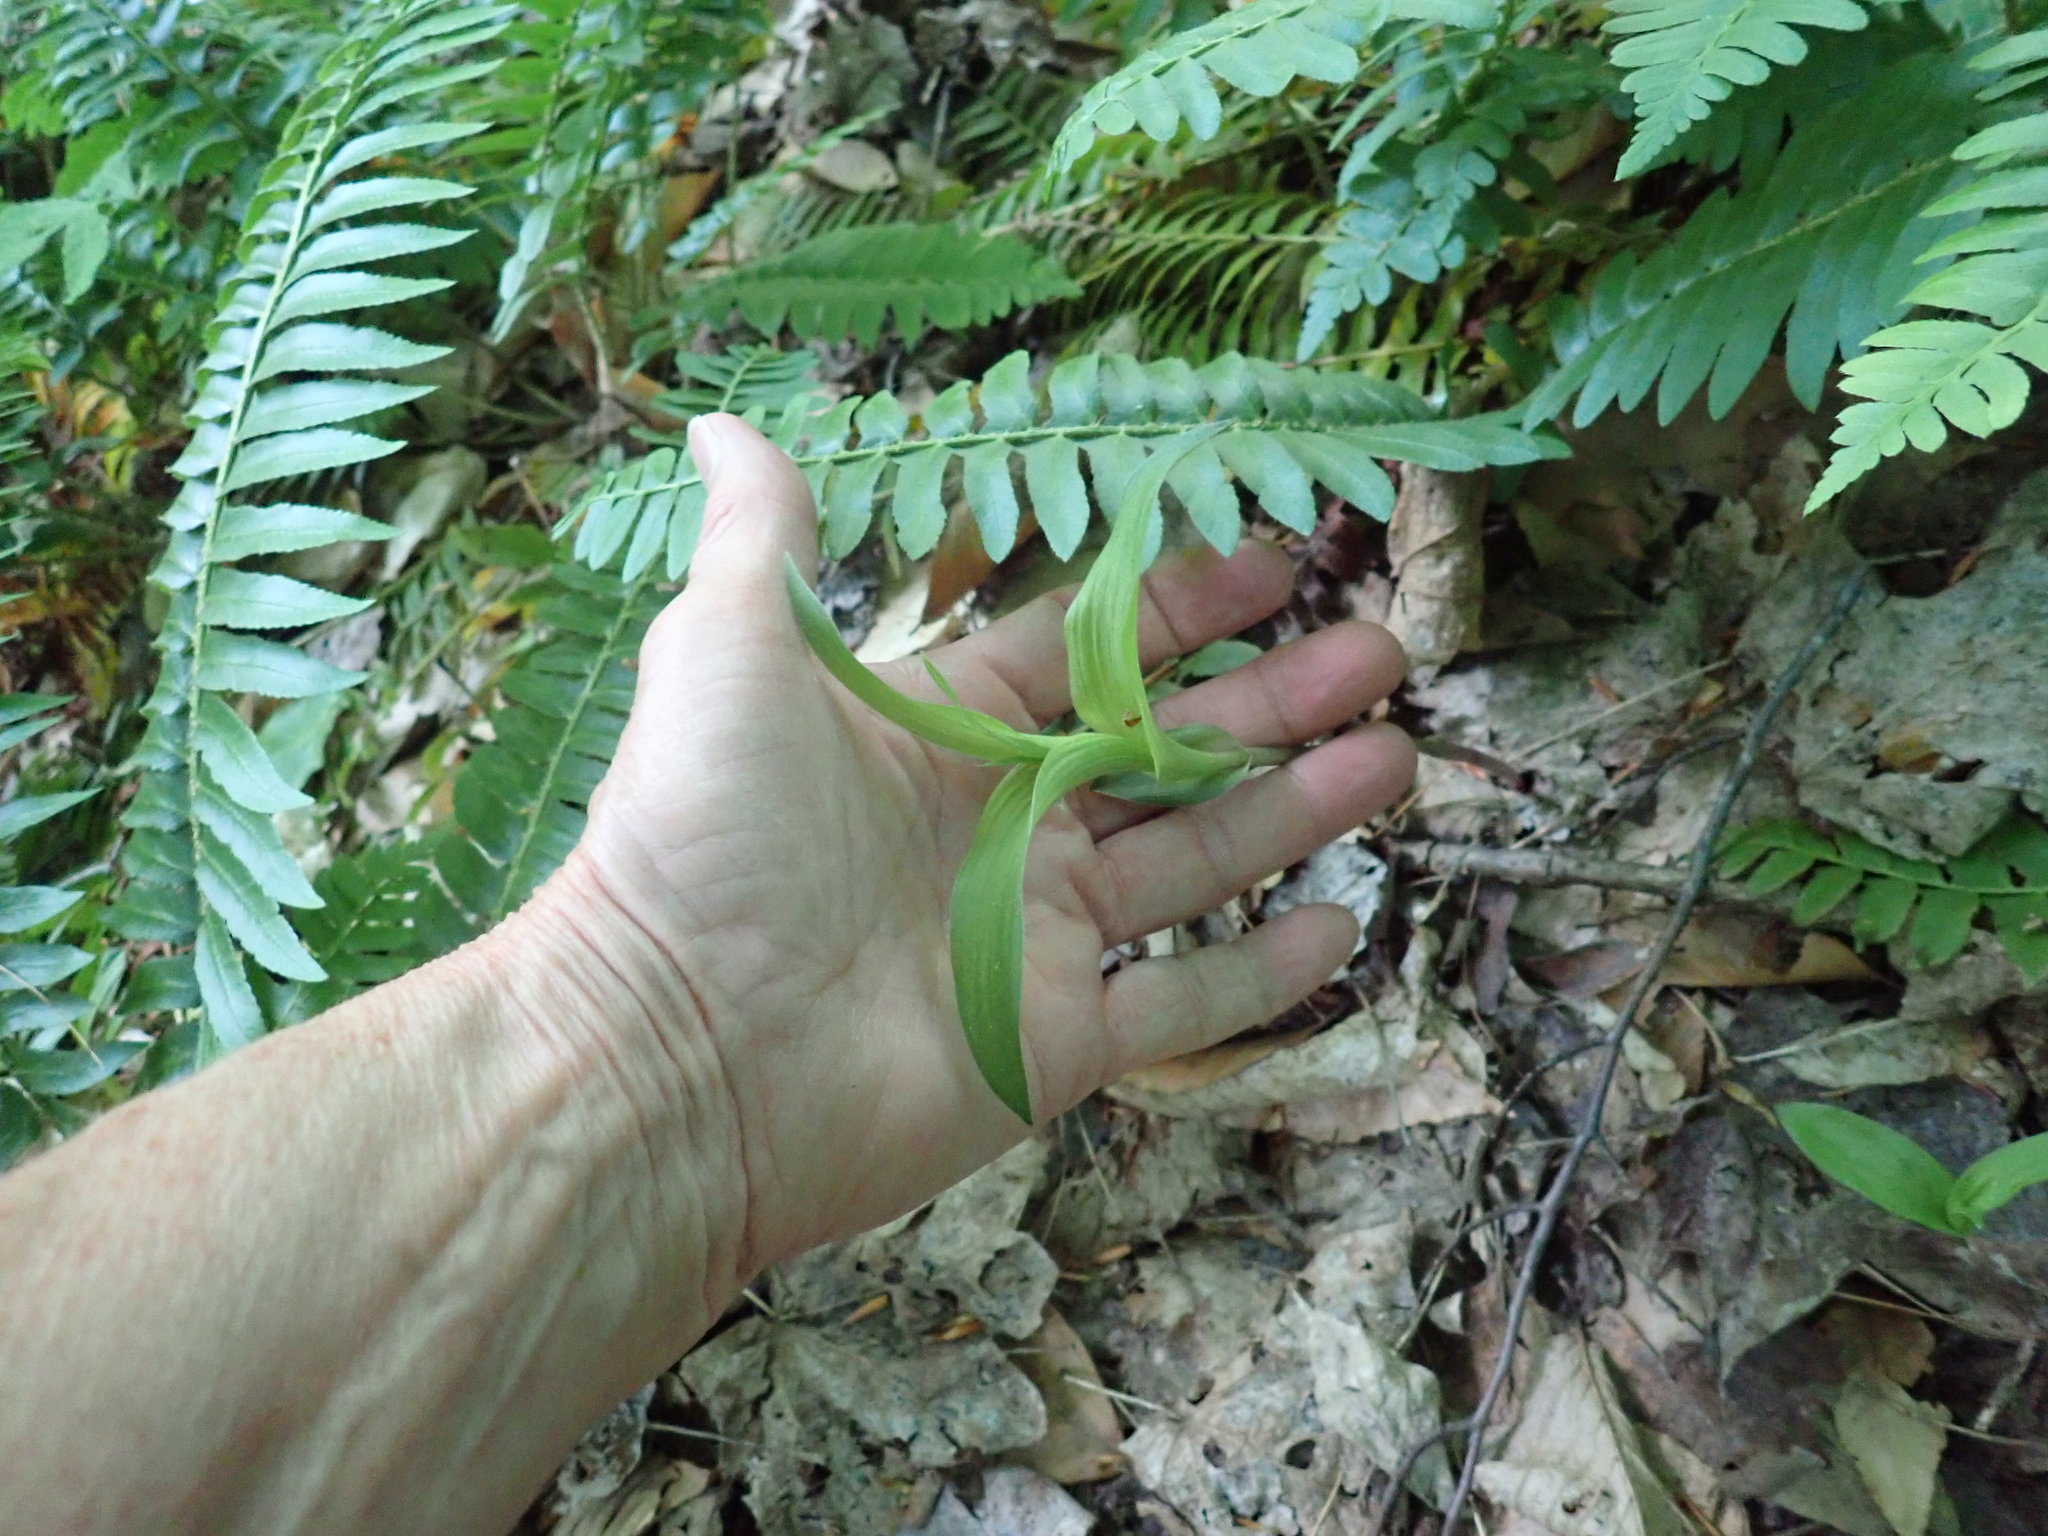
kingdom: Plantae
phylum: Tracheophyta
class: Liliopsida
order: Asparagales
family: Orchidaceae
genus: Epipactis
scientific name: Epipactis helleborine
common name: Broad-leaved helleborine
